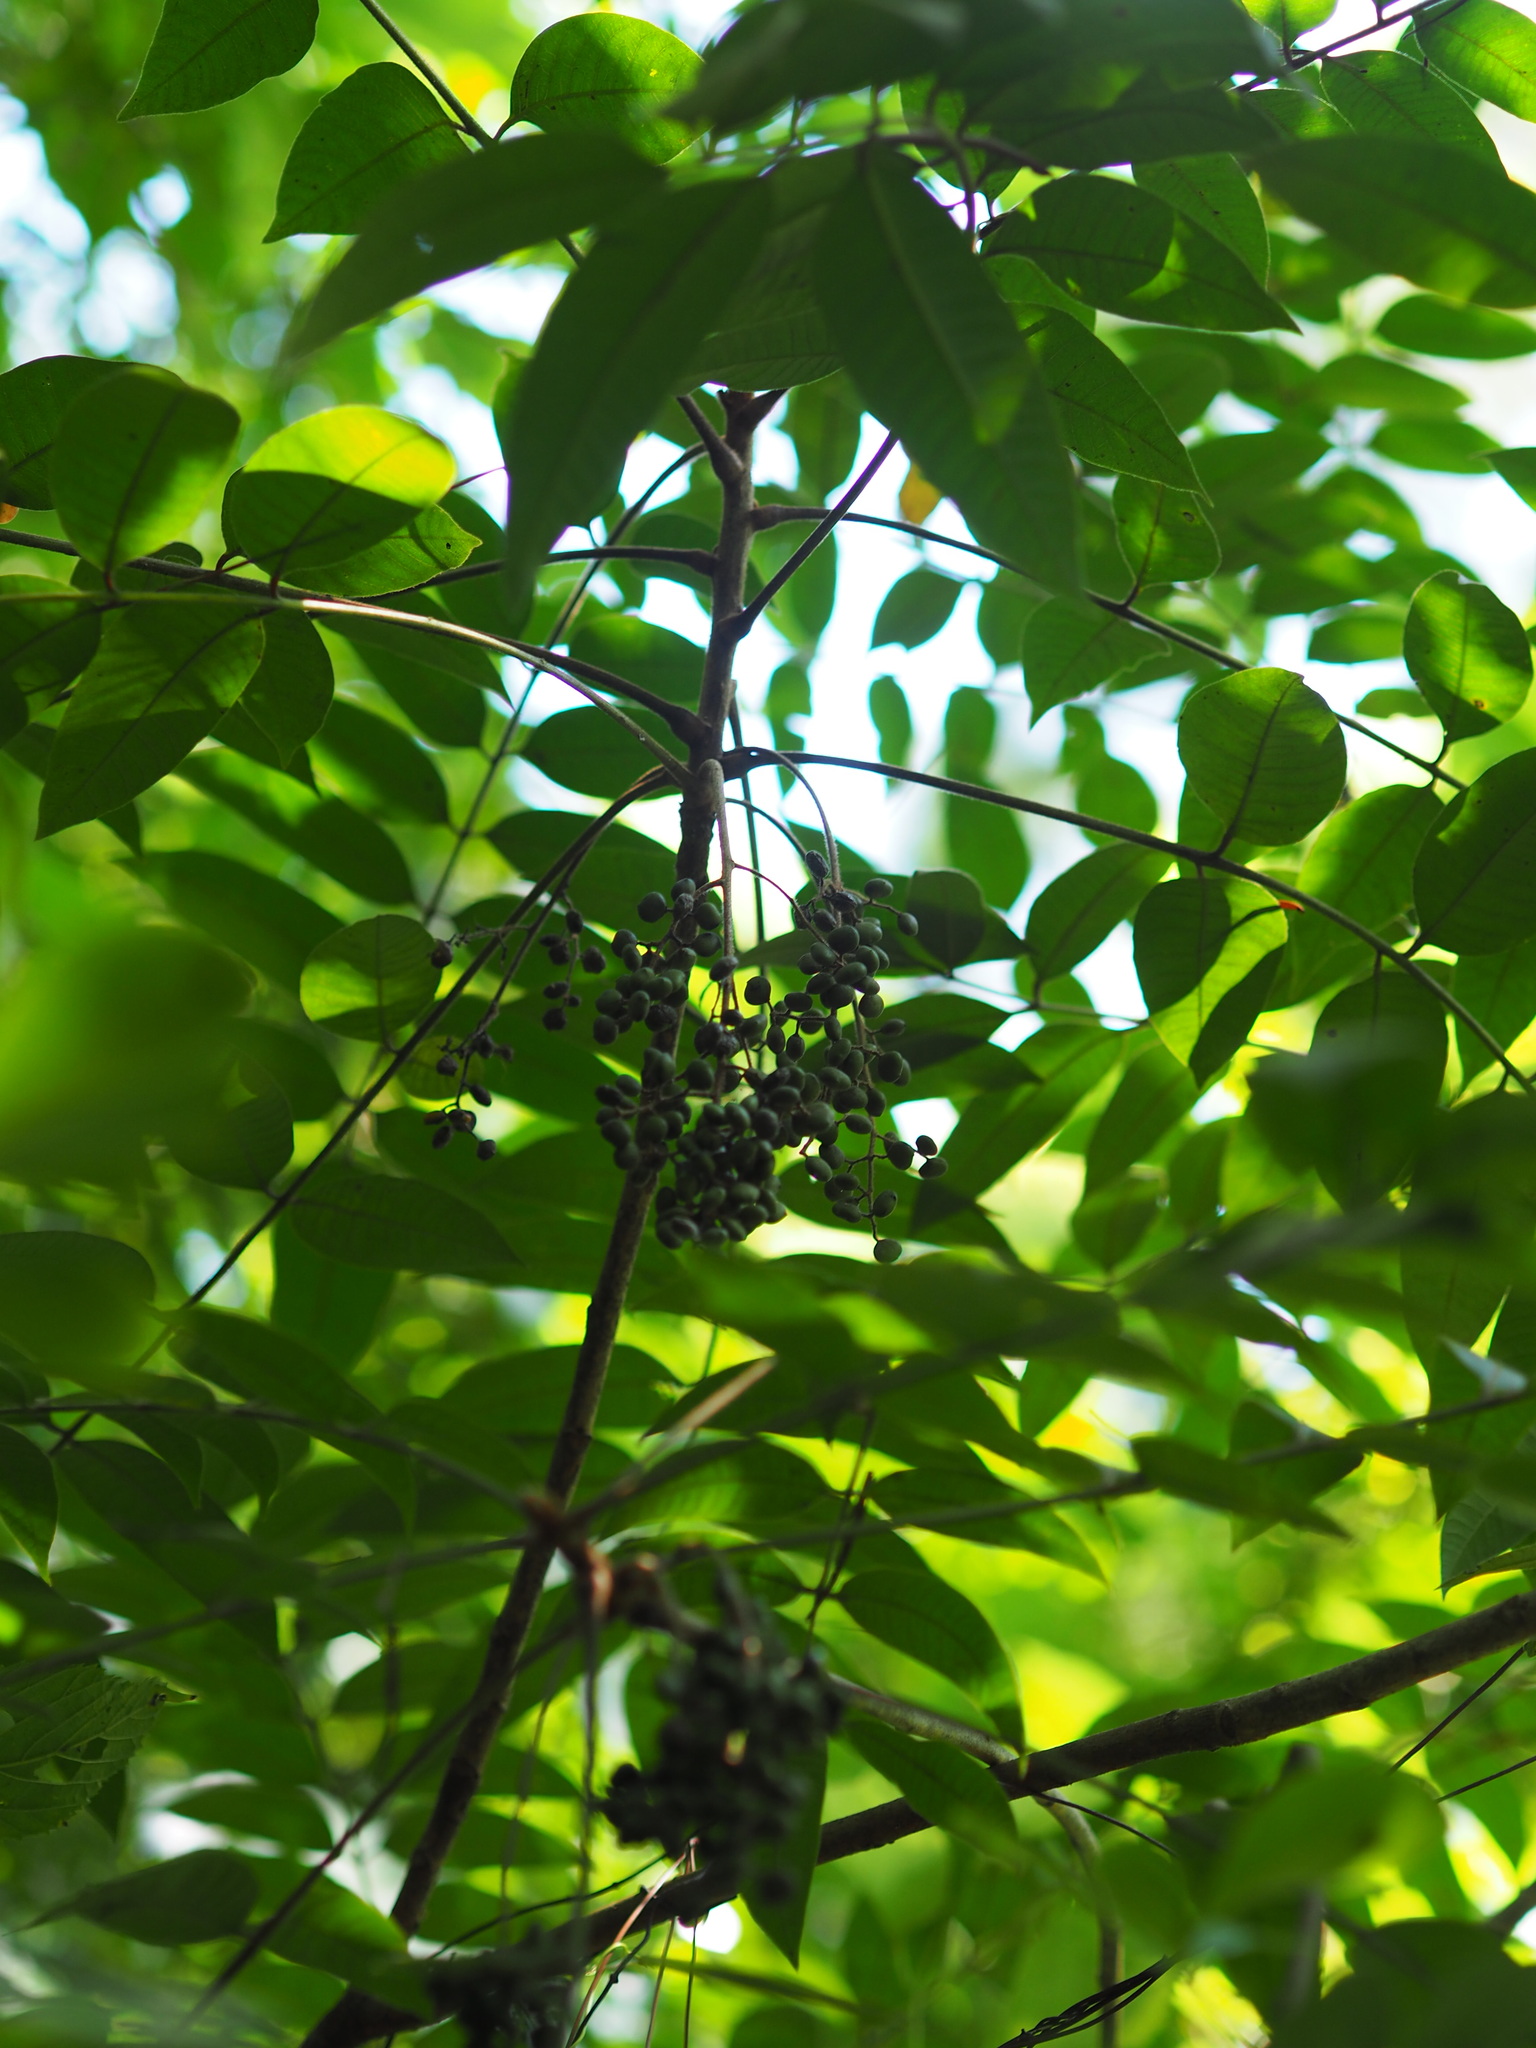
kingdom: Plantae
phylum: Tracheophyta
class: Magnoliopsida
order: Sapindales
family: Anacardiaceae
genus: Toxicodendron
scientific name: Toxicodendron sylvestre
